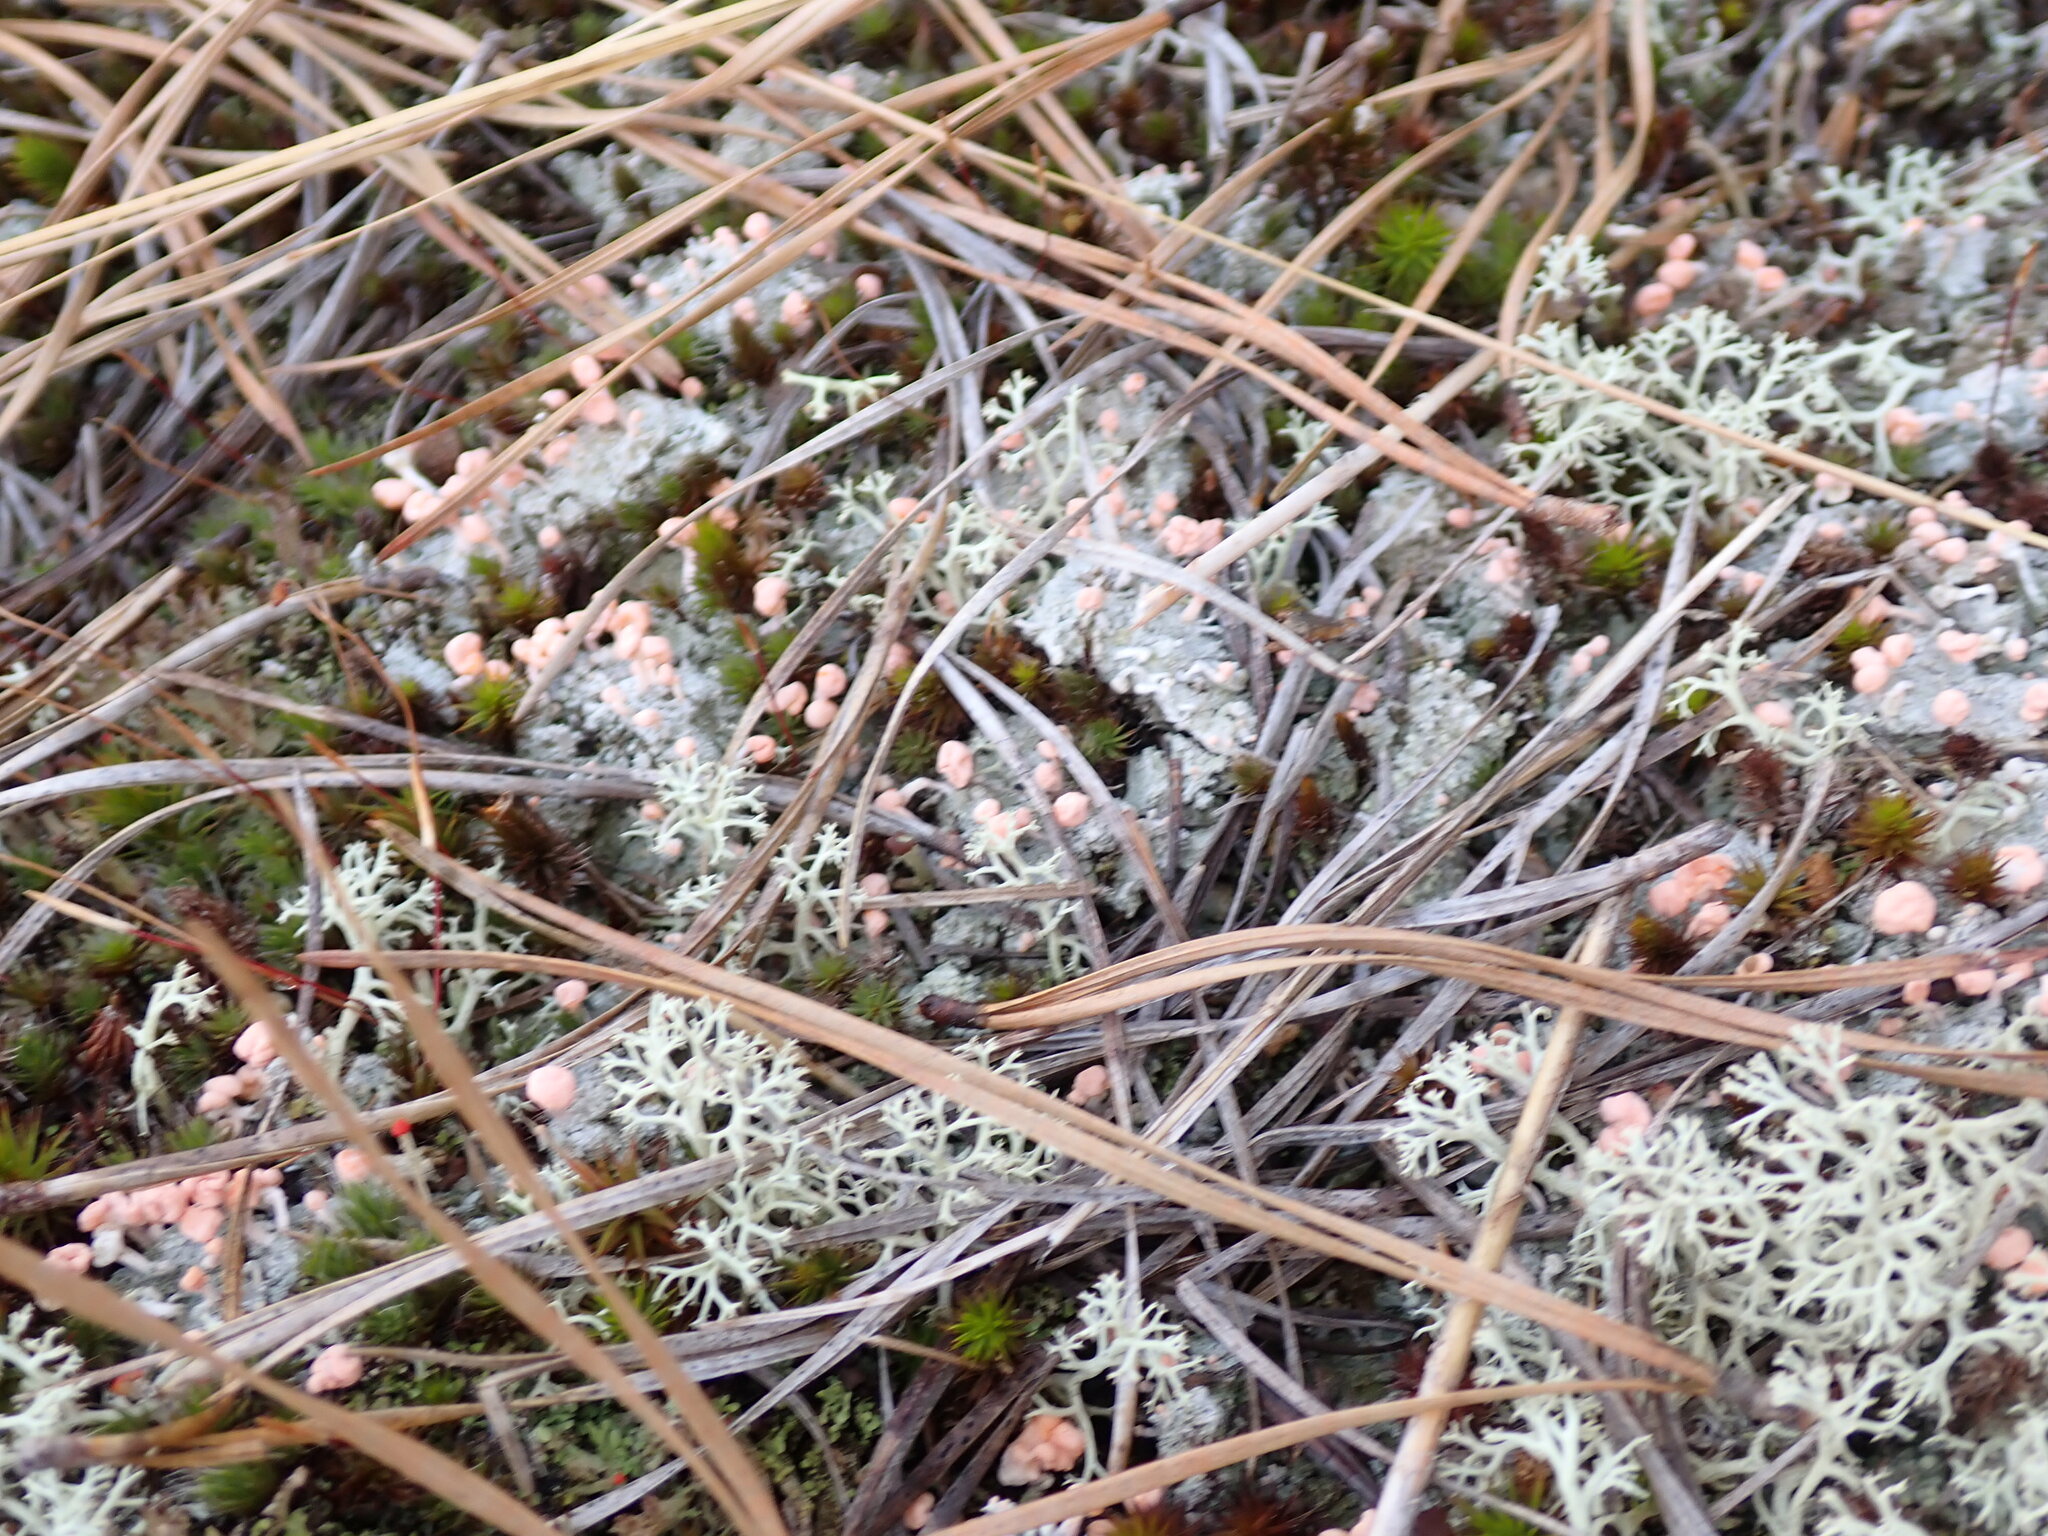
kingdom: Fungi
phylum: Ascomycota
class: Lecanoromycetes
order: Pertusariales
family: Icmadophilaceae
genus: Dibaeis
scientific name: Dibaeis baeomyces
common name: Pink earth lichen
